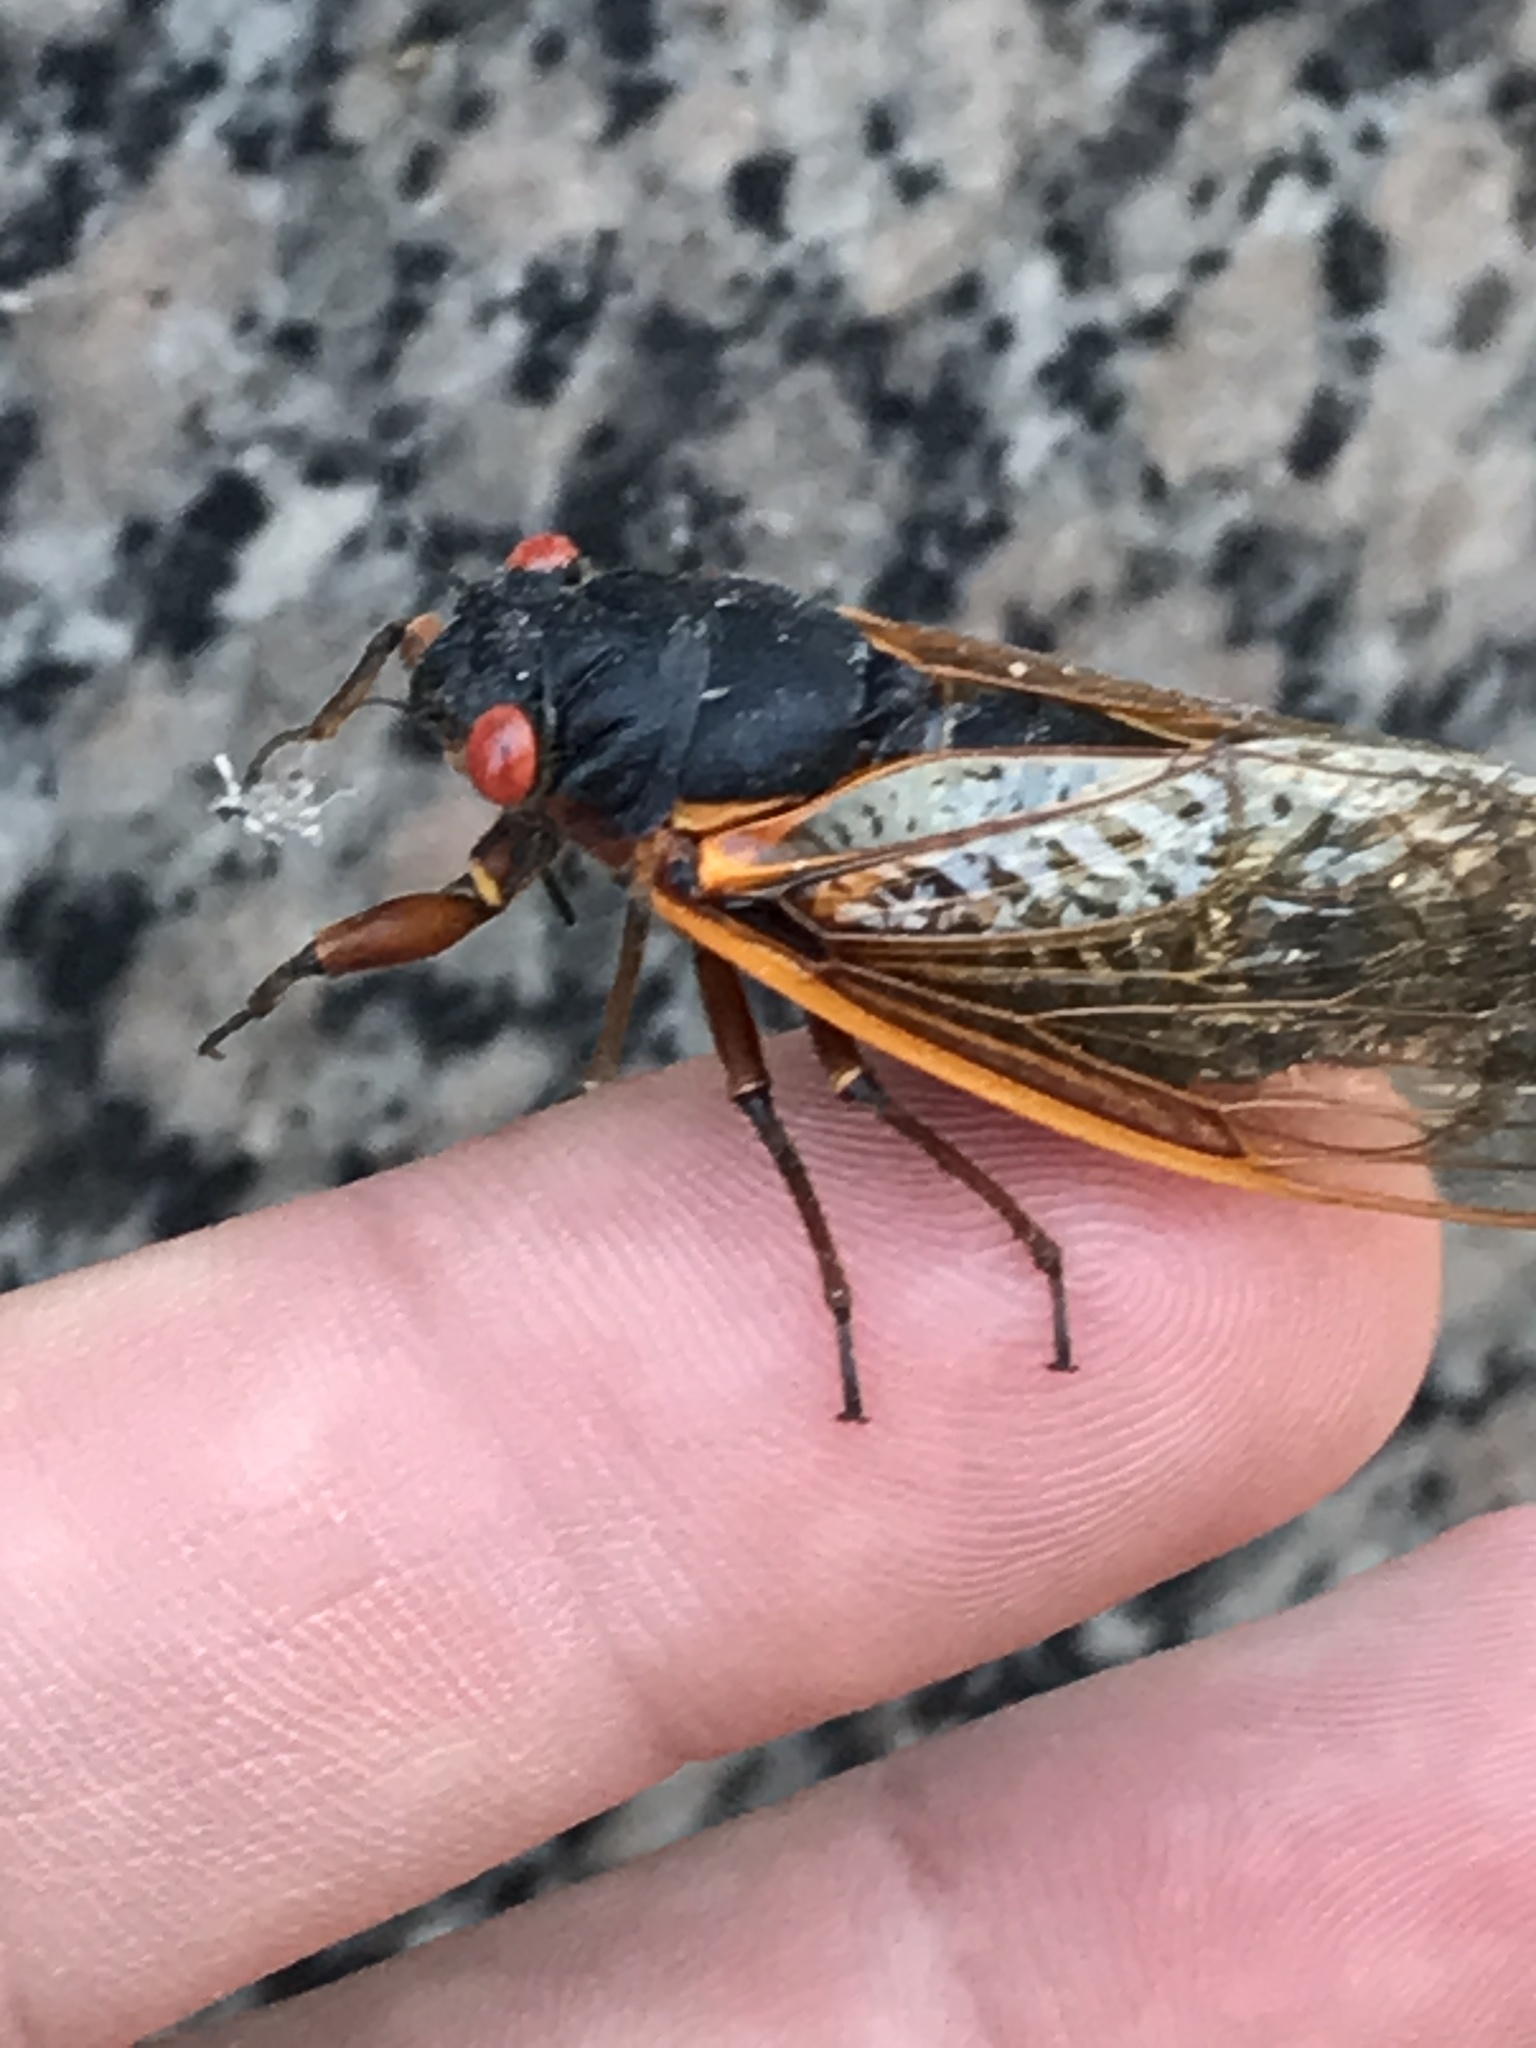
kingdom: Animalia
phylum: Arthropoda
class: Insecta
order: Hemiptera
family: Cicadidae
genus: Magicicada
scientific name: Magicicada septendecim
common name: Periodical cicada
